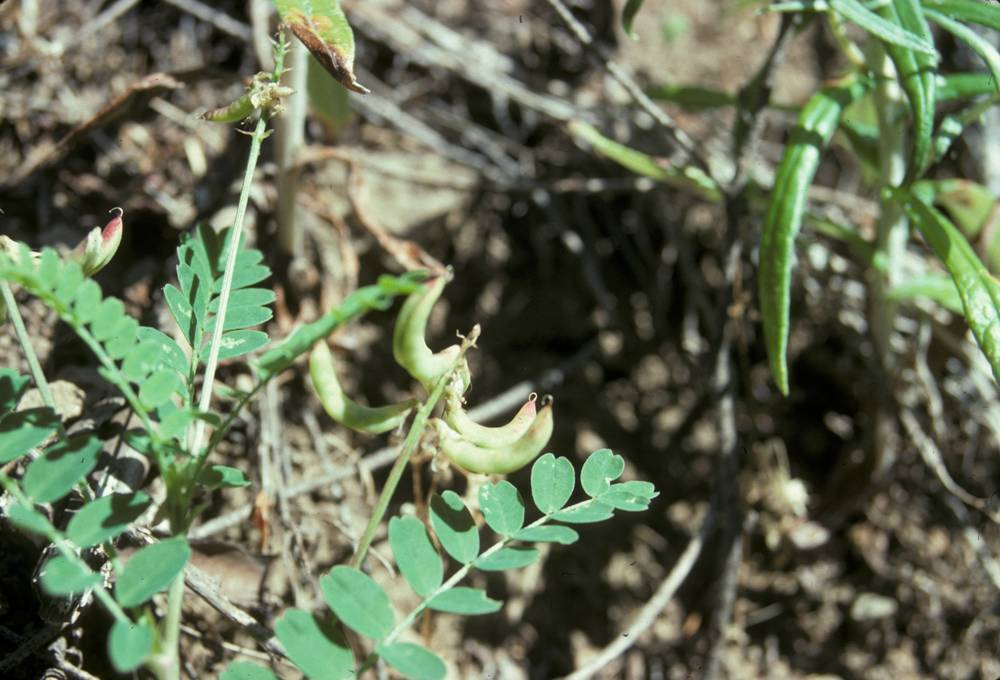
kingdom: Plantae
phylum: Tracheophyta
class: Magnoliopsida
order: Fabales
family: Fabaceae
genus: Astragalus
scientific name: Astragalus umbraticus
